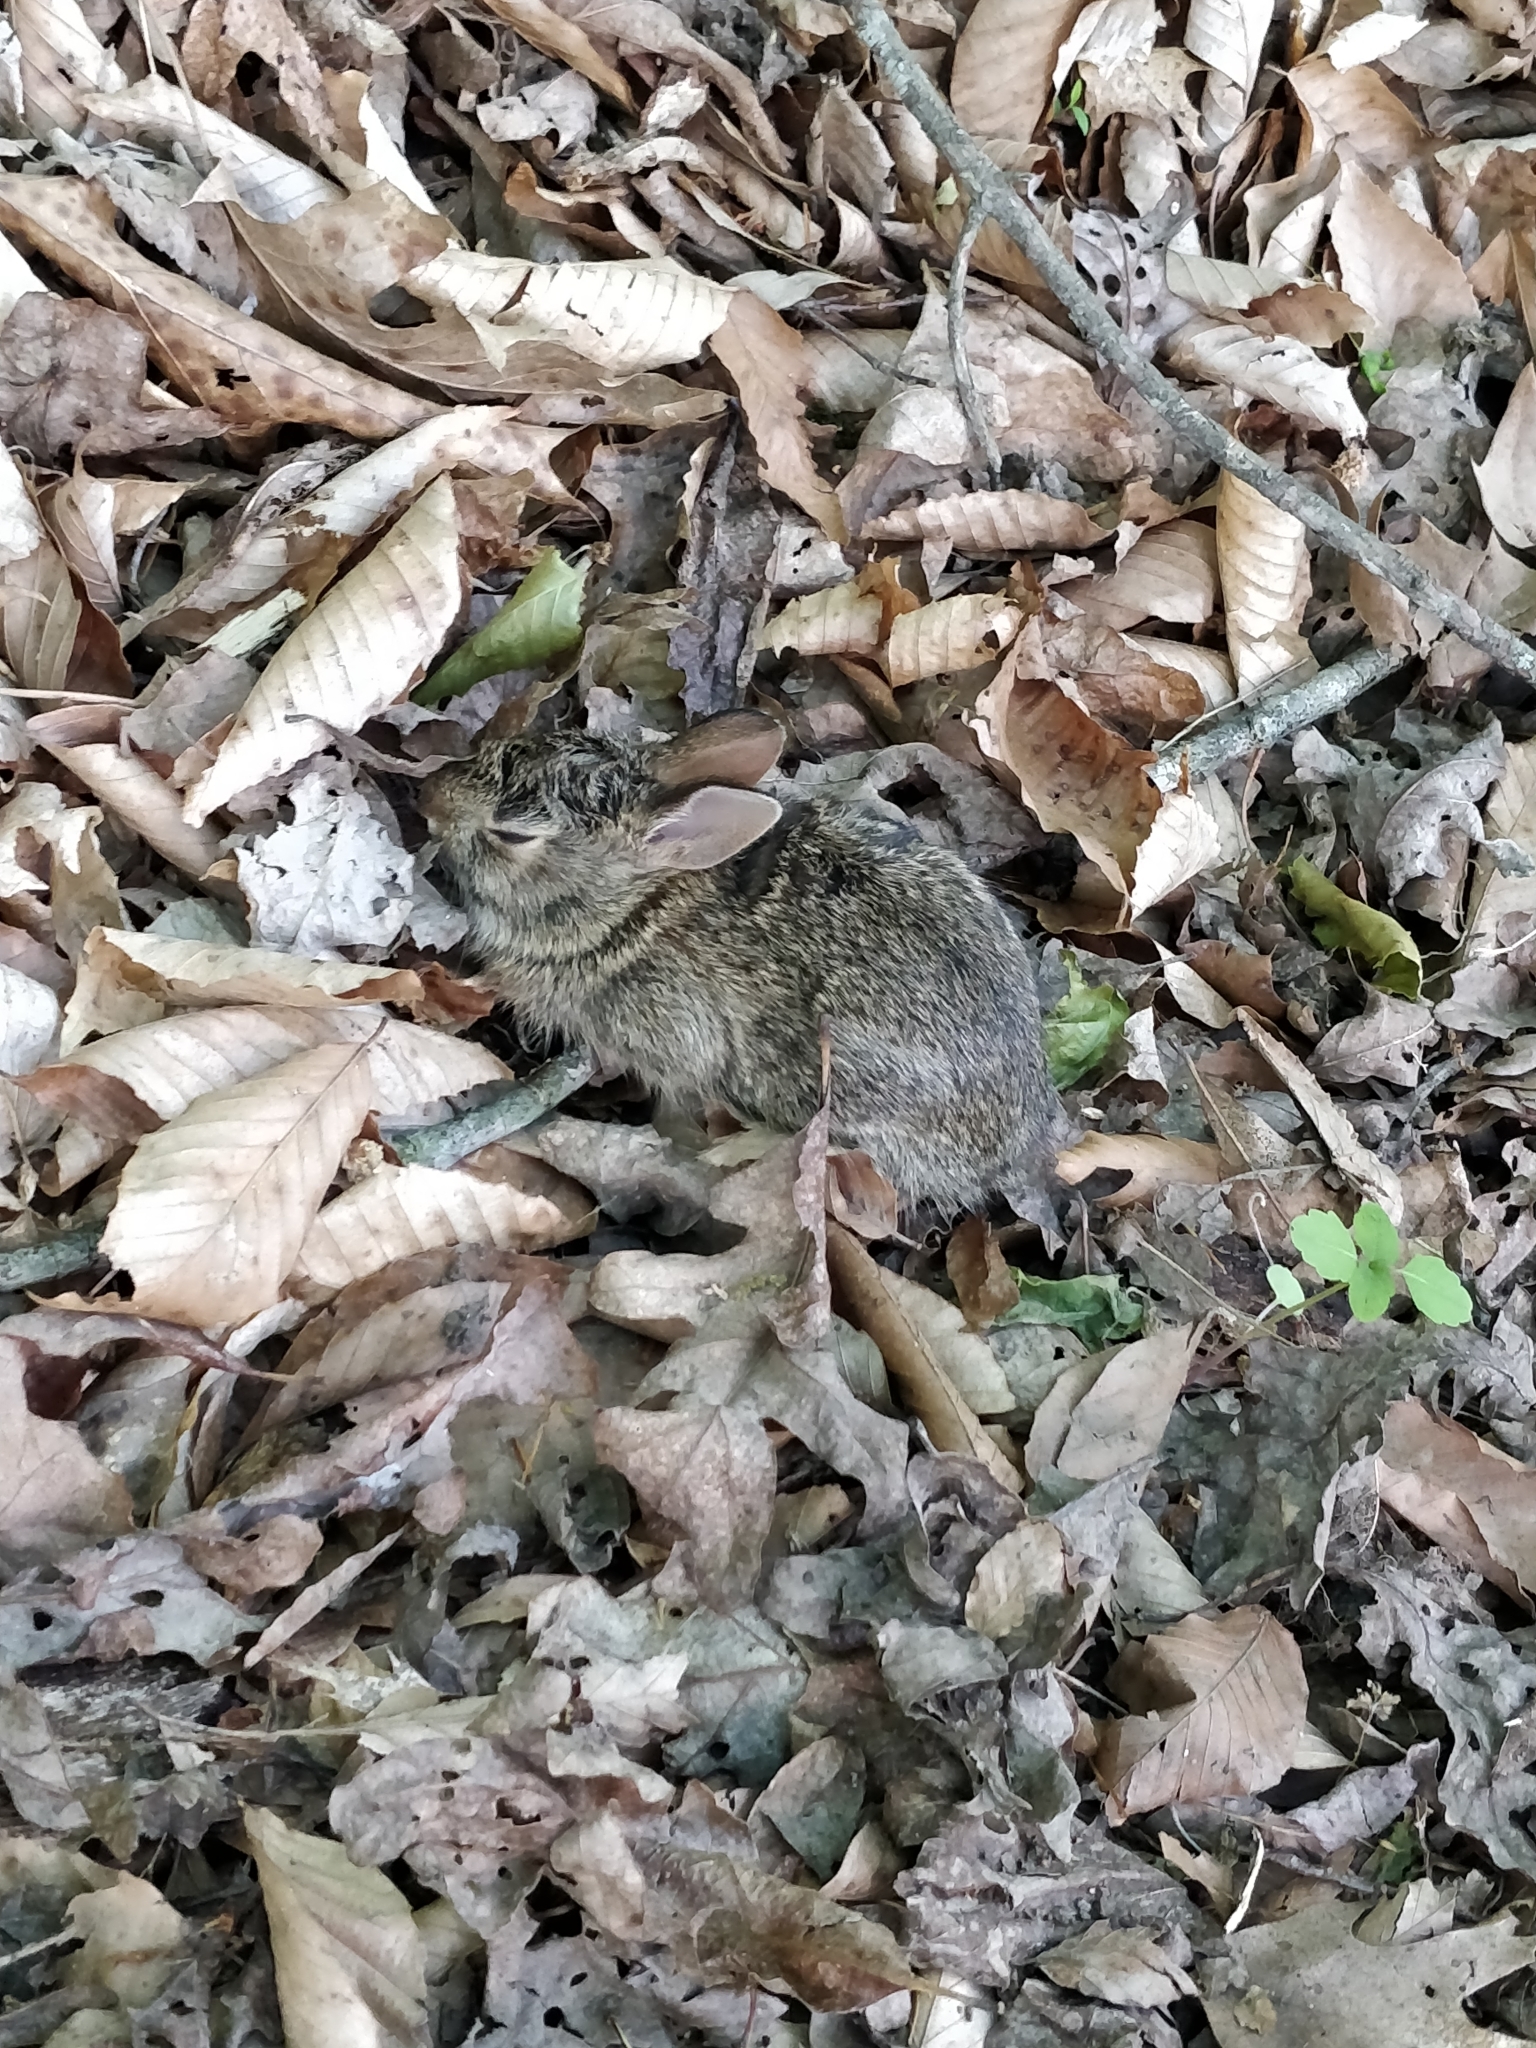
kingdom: Animalia
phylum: Chordata
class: Mammalia
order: Lagomorpha
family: Leporidae
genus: Sylvilagus
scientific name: Sylvilagus floridanus
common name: Eastern cottontail
